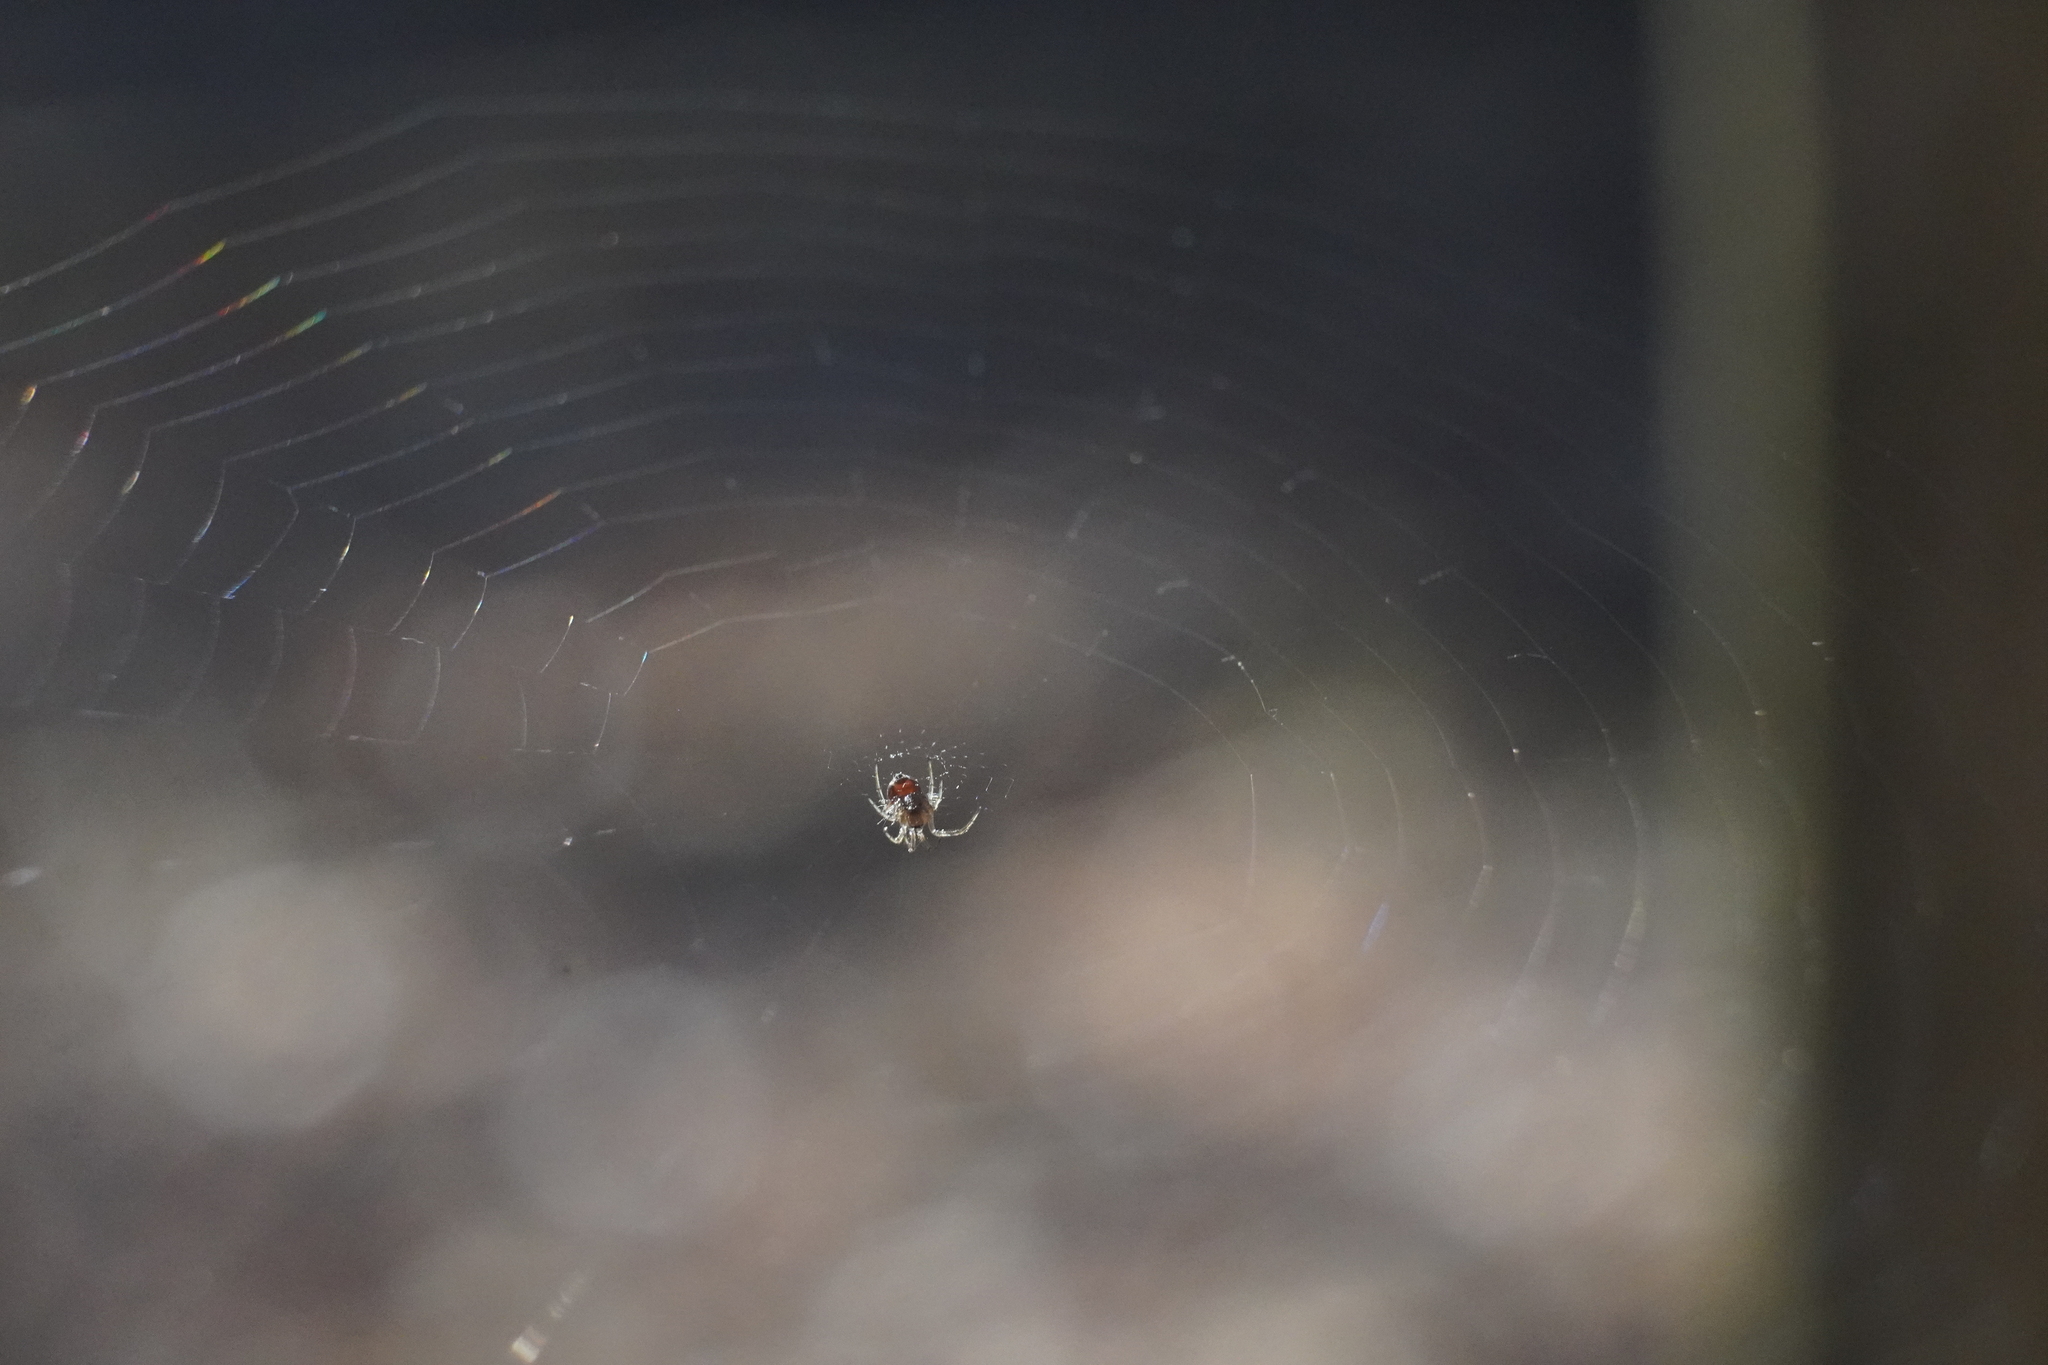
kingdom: Animalia
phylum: Arthropoda
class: Arachnida
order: Araneae
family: Tetragnathidae
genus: Leucauge
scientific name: Leucauge venusta
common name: Longjawed orb weavers
